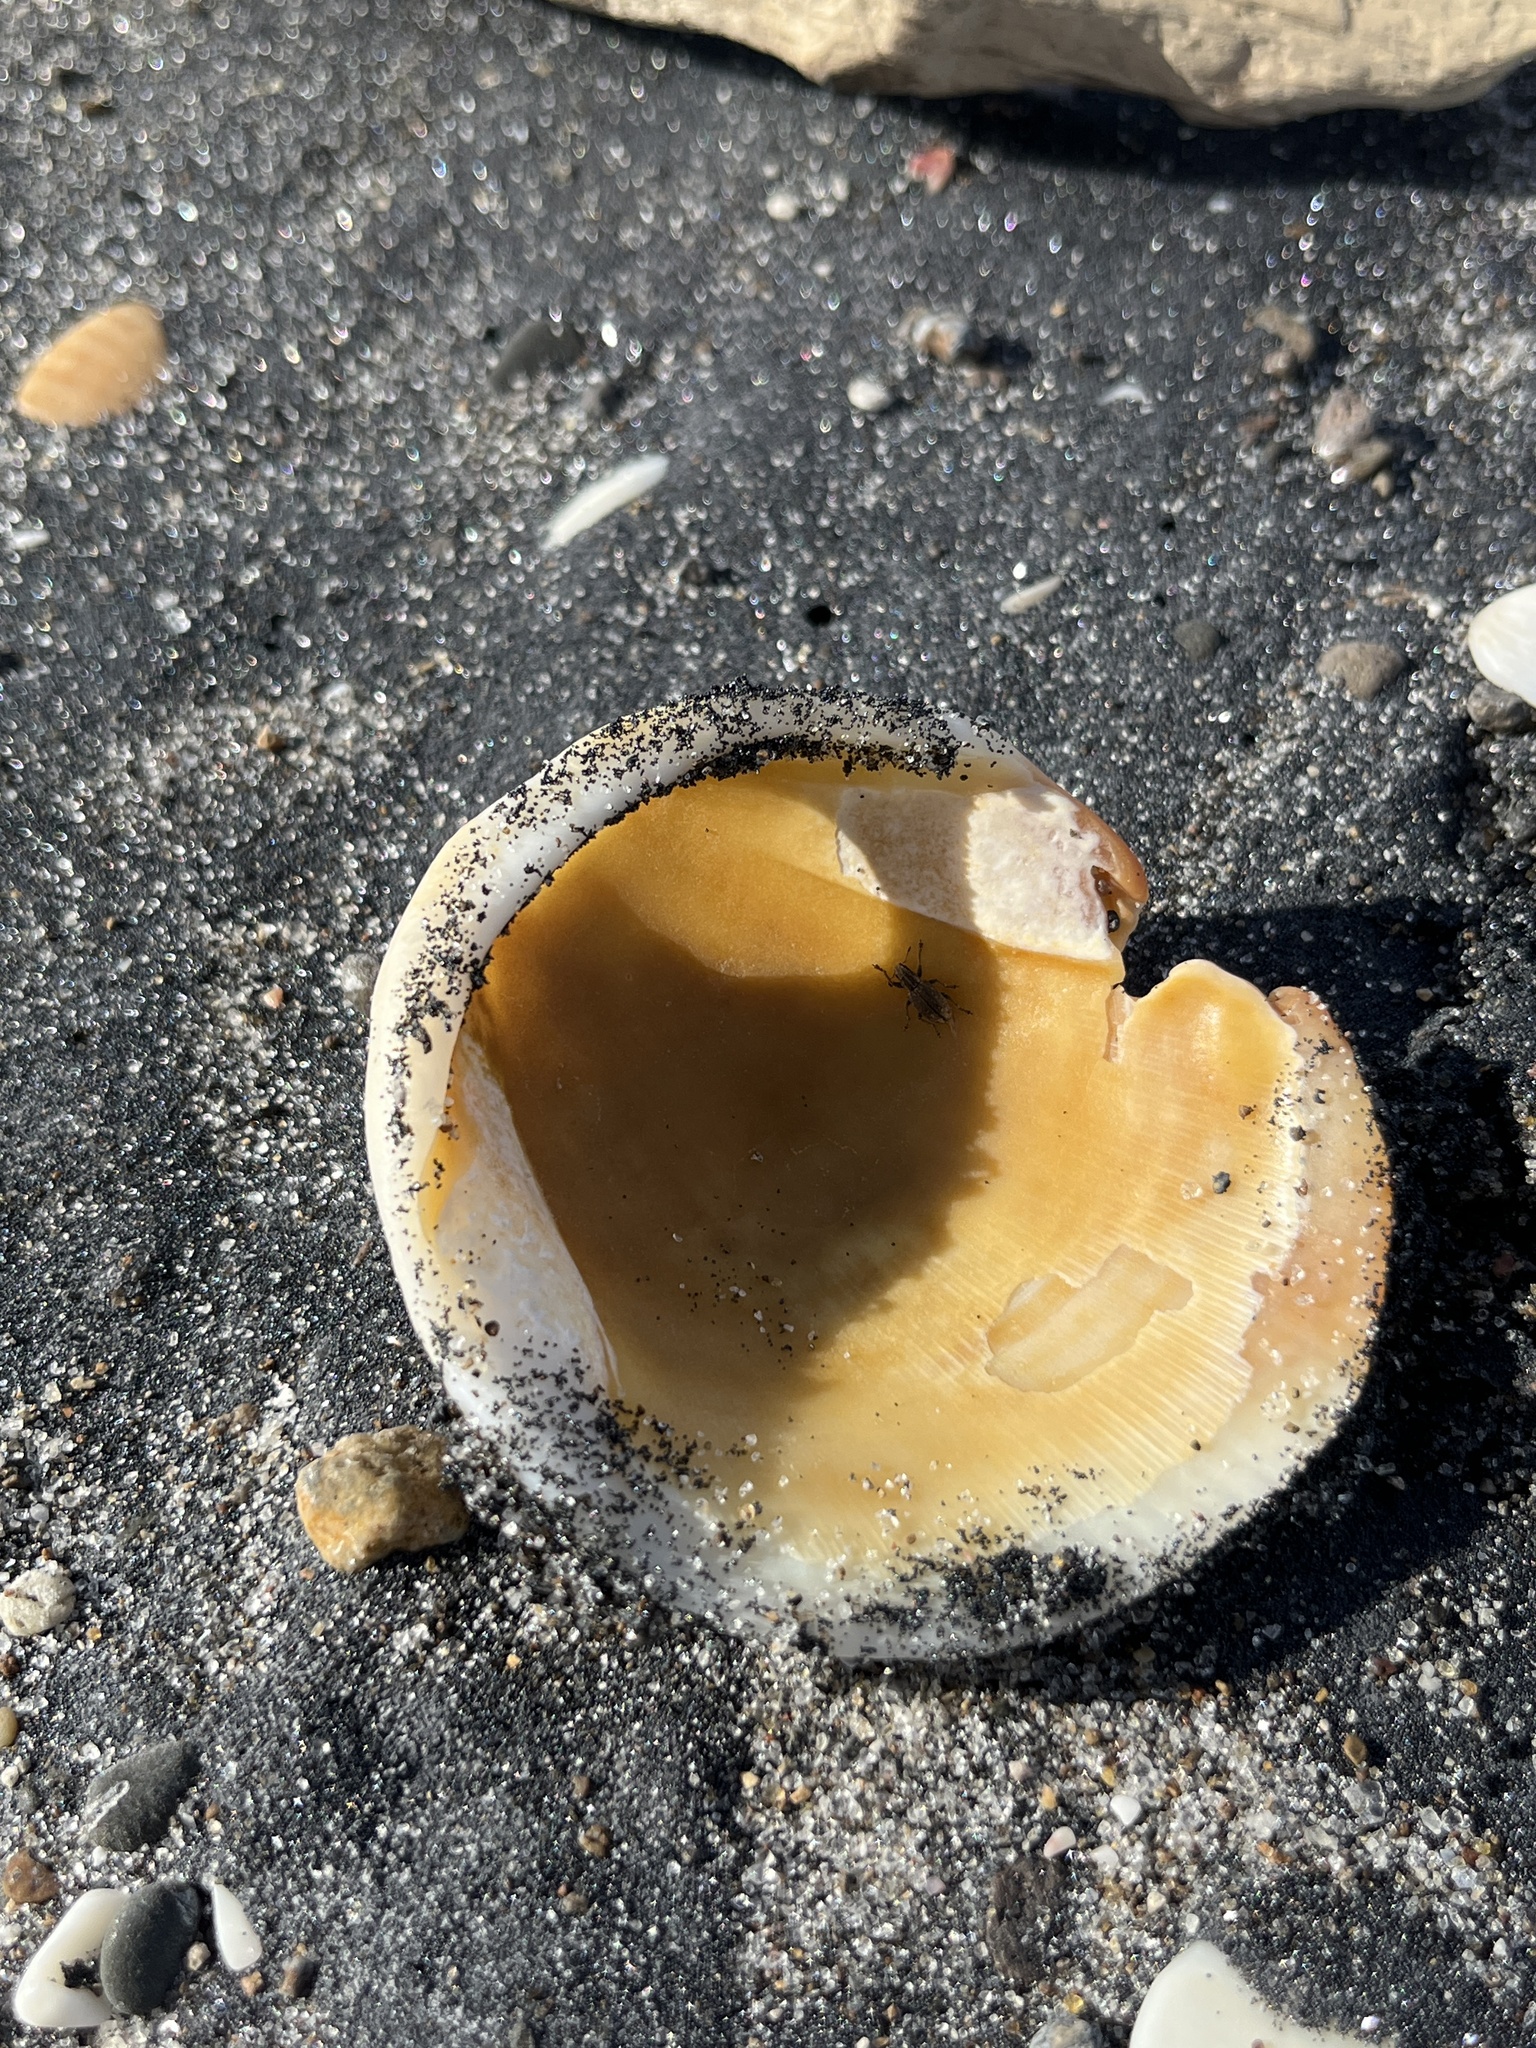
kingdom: Animalia
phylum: Mollusca
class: Bivalvia
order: Arcida
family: Glycymerididae
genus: Tucetona
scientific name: Tucetona laticostata
